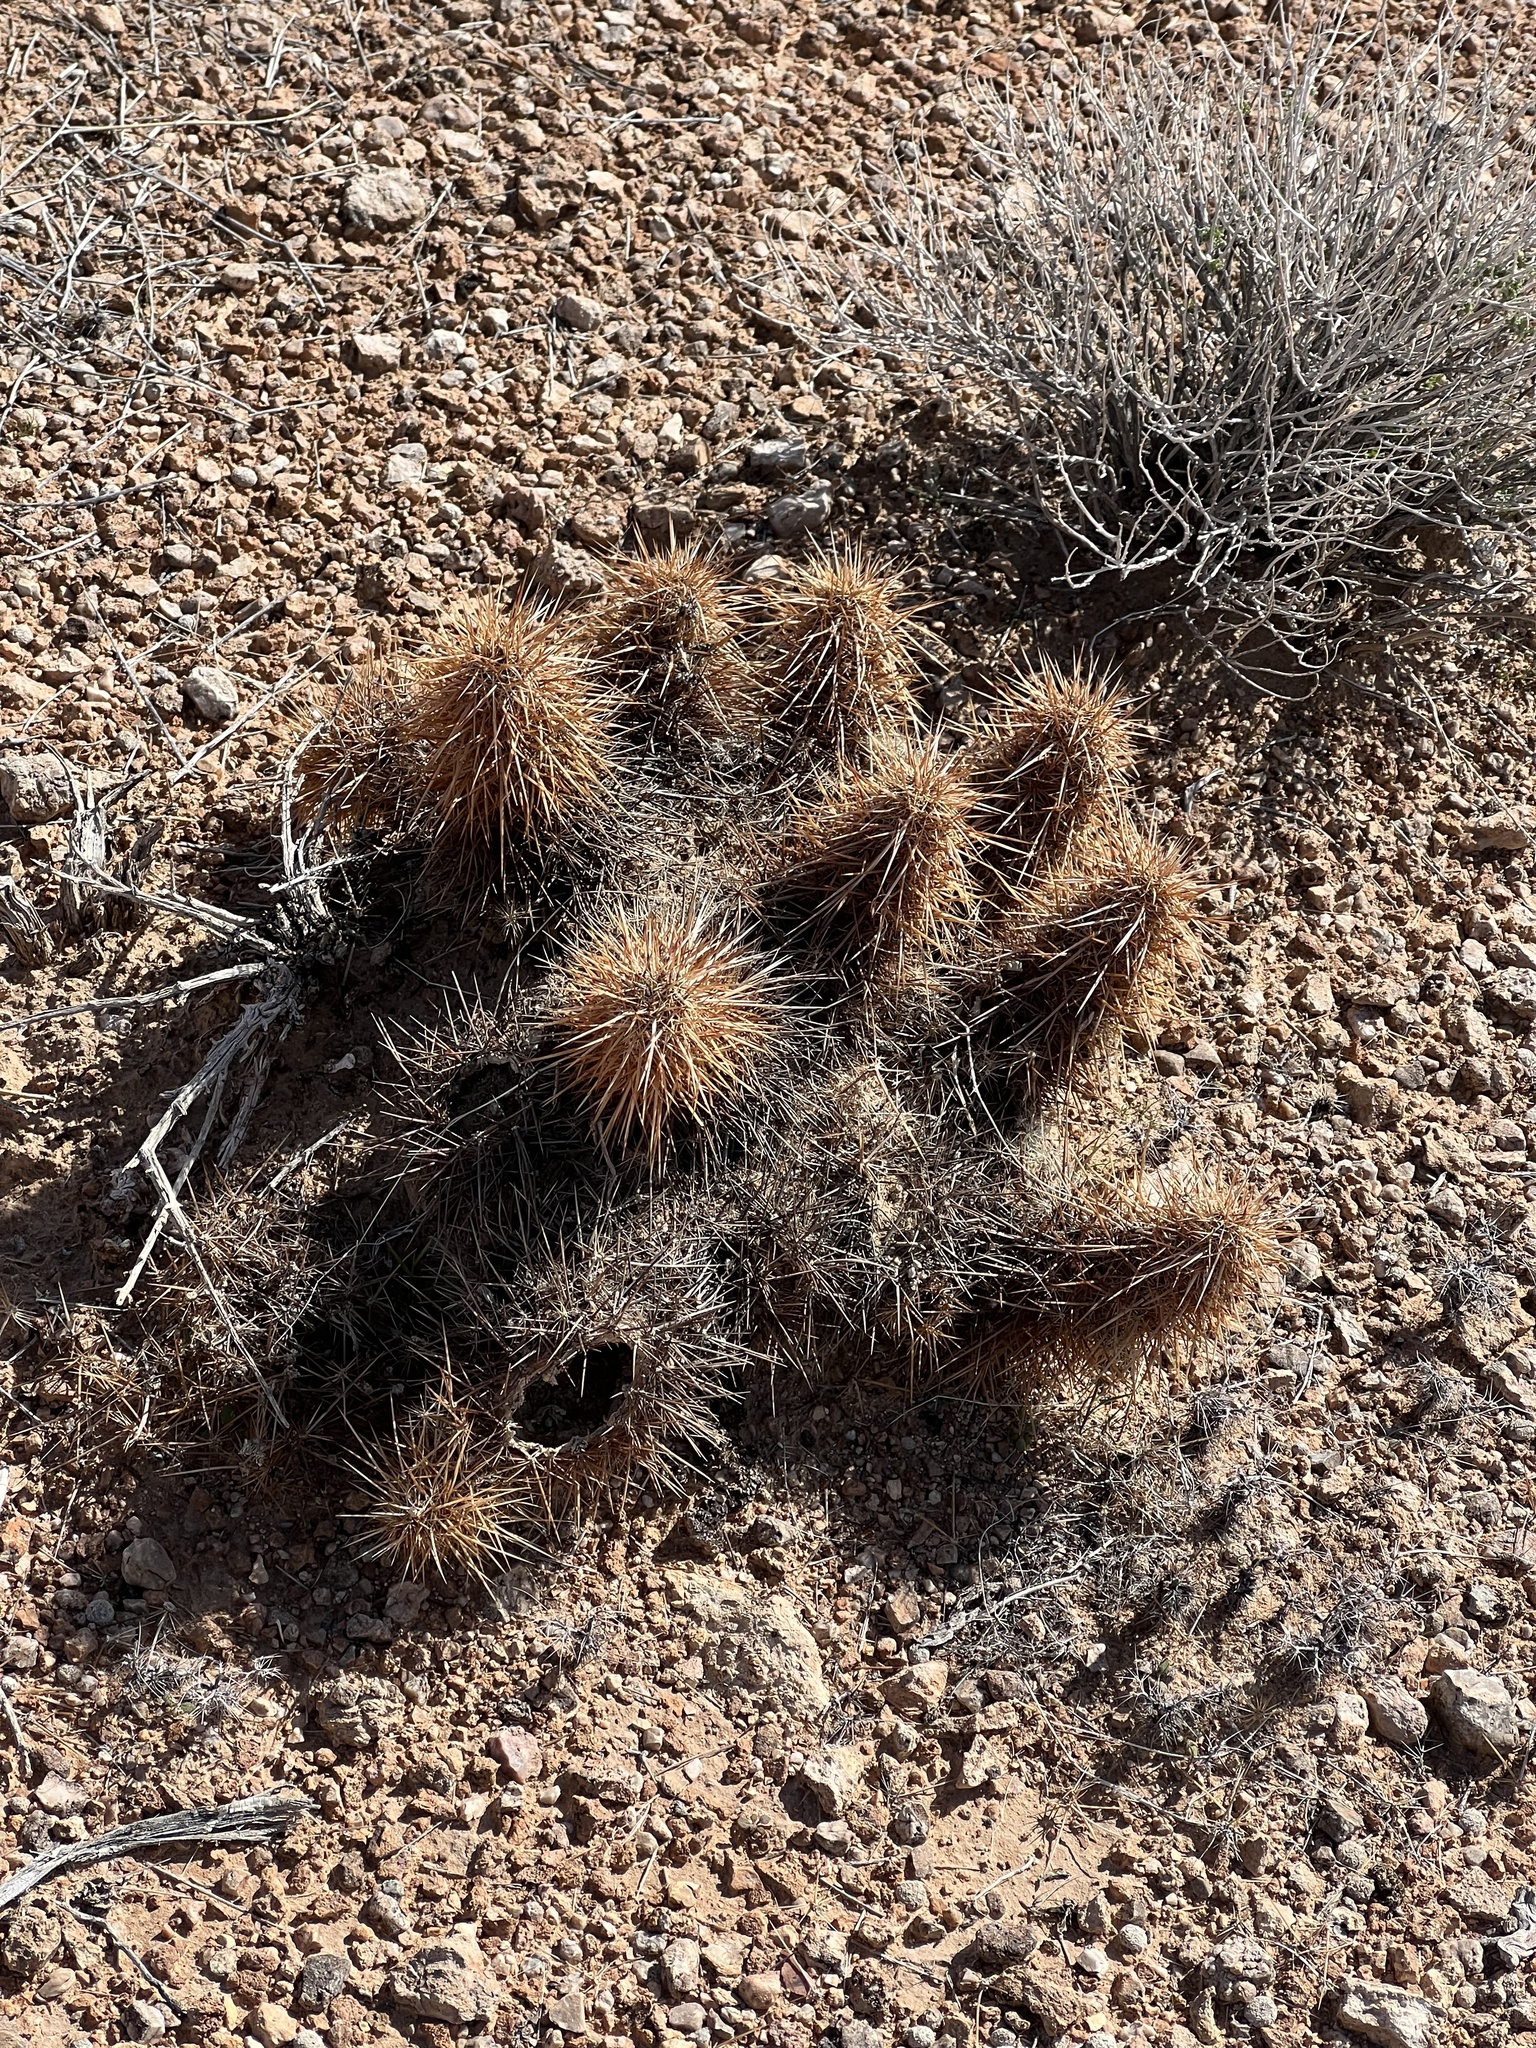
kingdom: Plantae
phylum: Tracheophyta
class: Magnoliopsida
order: Caryophyllales
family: Cactaceae
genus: Echinocereus
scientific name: Echinocereus engelmannii
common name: Engelmann's hedgehog cactus
